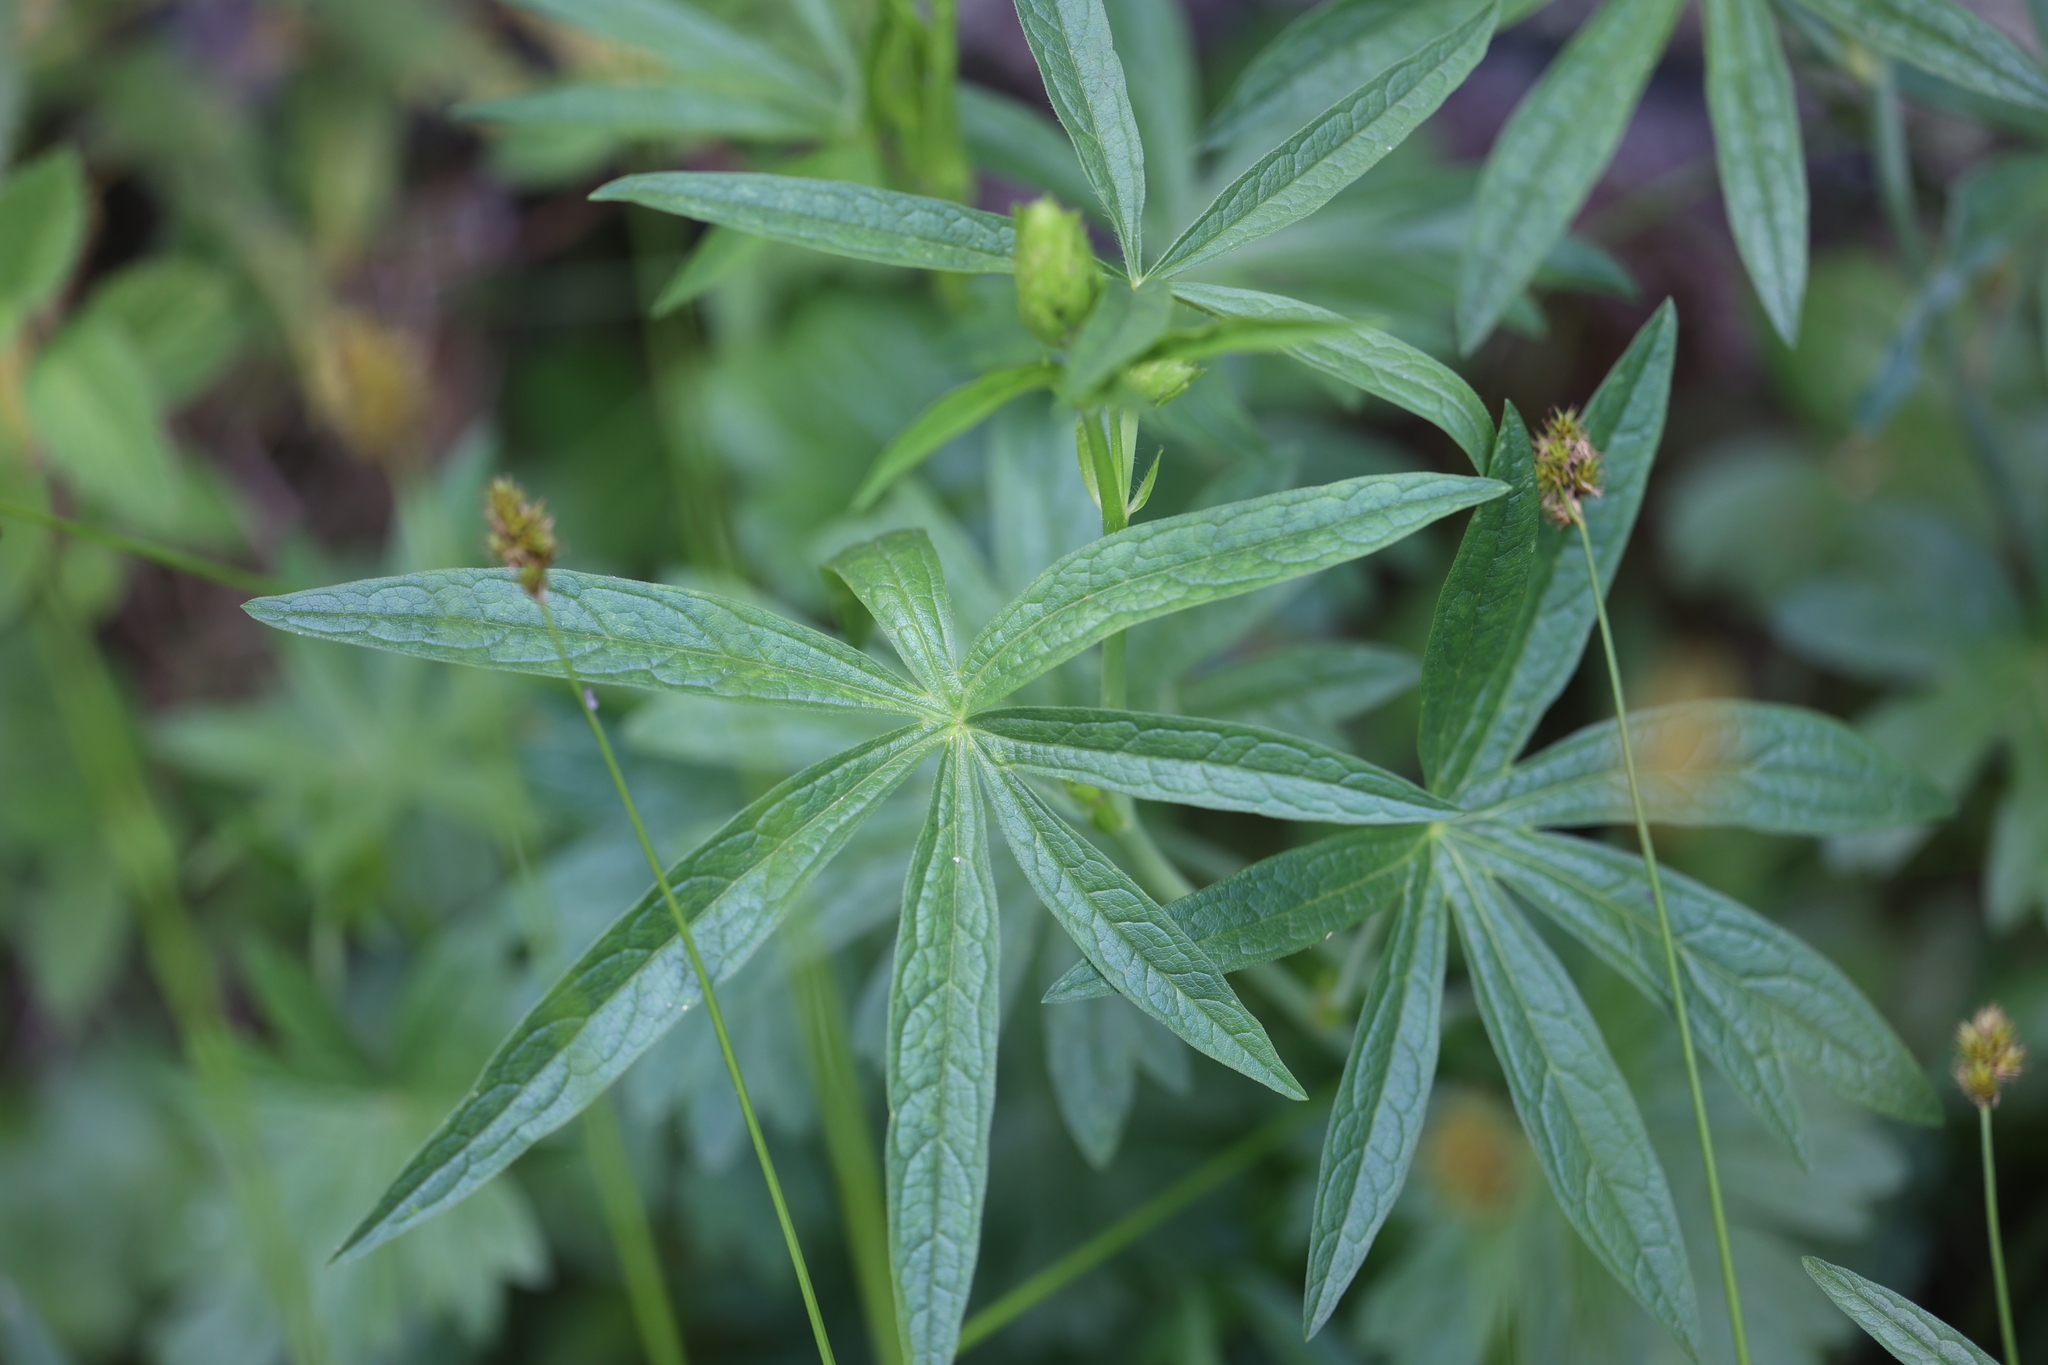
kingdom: Plantae
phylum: Tracheophyta
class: Magnoliopsida
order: Malvales
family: Malvaceae
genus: Sidalcea
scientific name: Sidalcea candida
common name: Prairie-mallow
